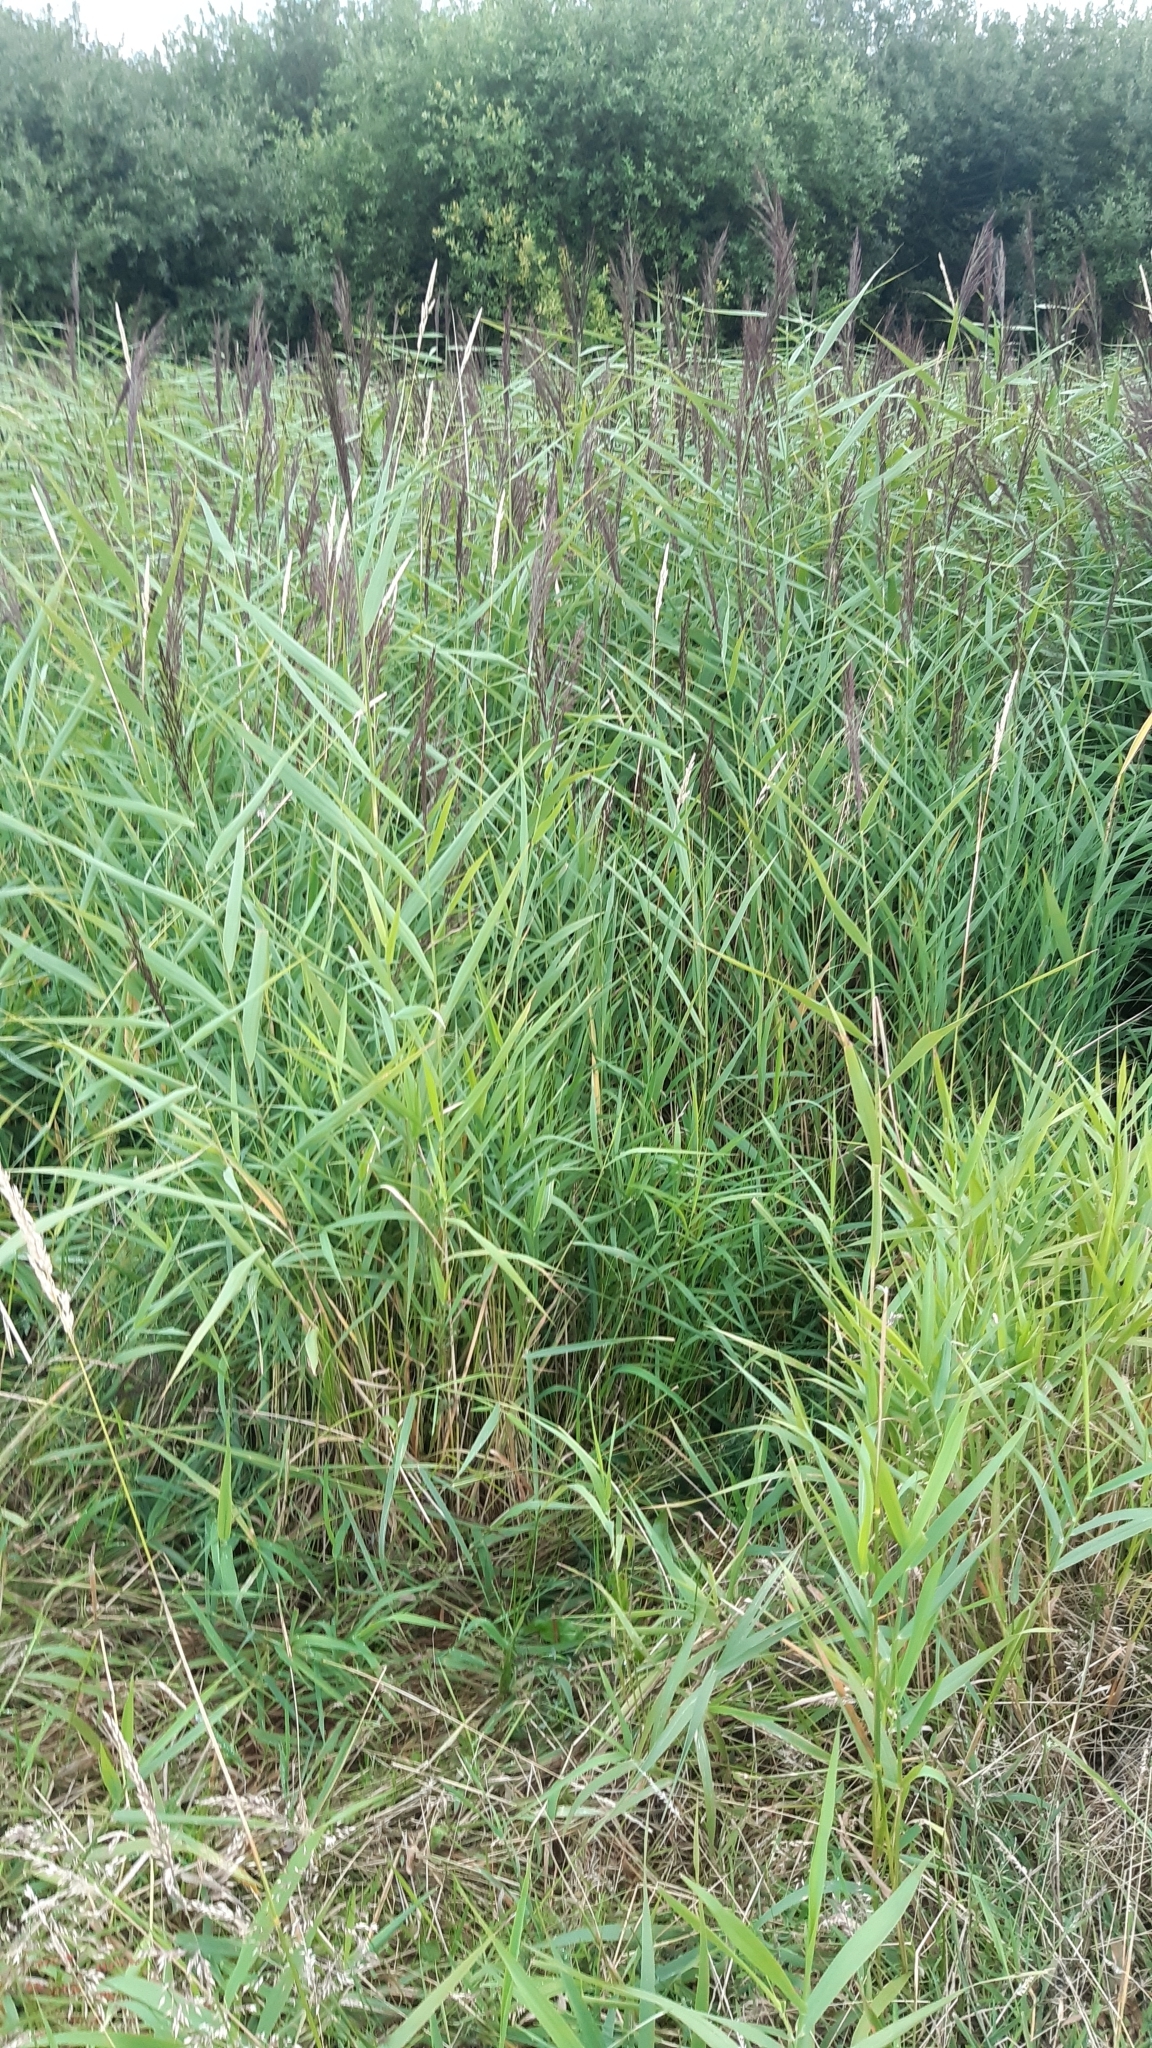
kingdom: Plantae
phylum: Tracheophyta
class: Liliopsida
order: Poales
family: Poaceae
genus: Phragmites
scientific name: Phragmites australis
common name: Common reed
